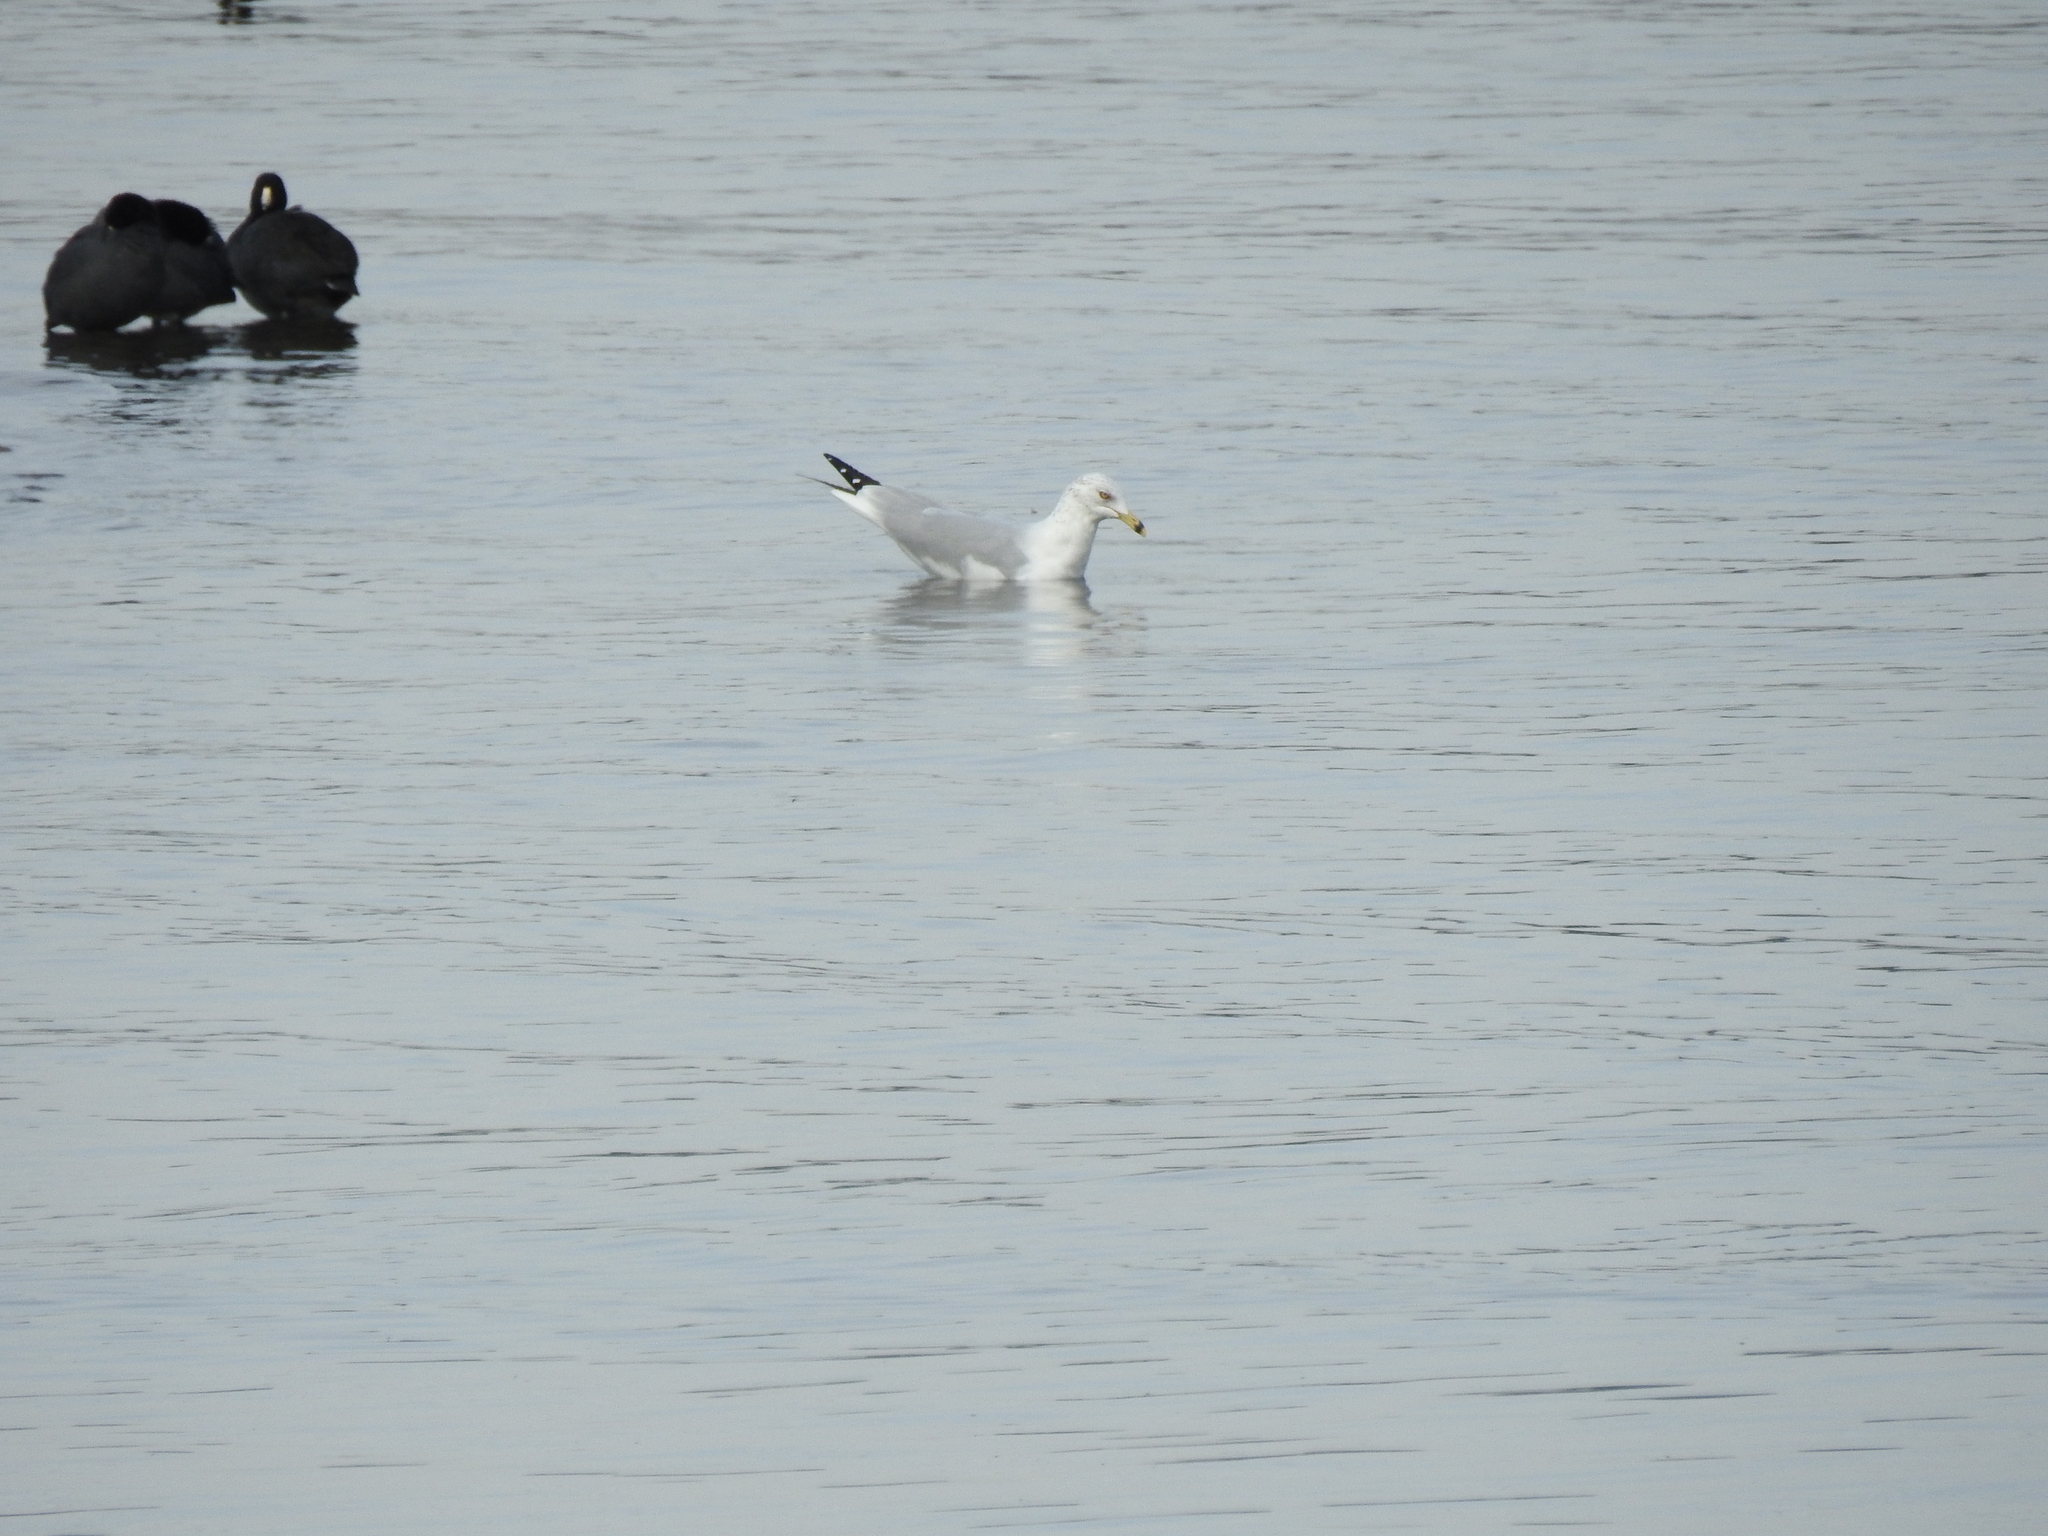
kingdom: Animalia
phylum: Chordata
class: Aves
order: Charadriiformes
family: Laridae
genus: Larus
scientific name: Larus delawarensis
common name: Ring-billed gull
